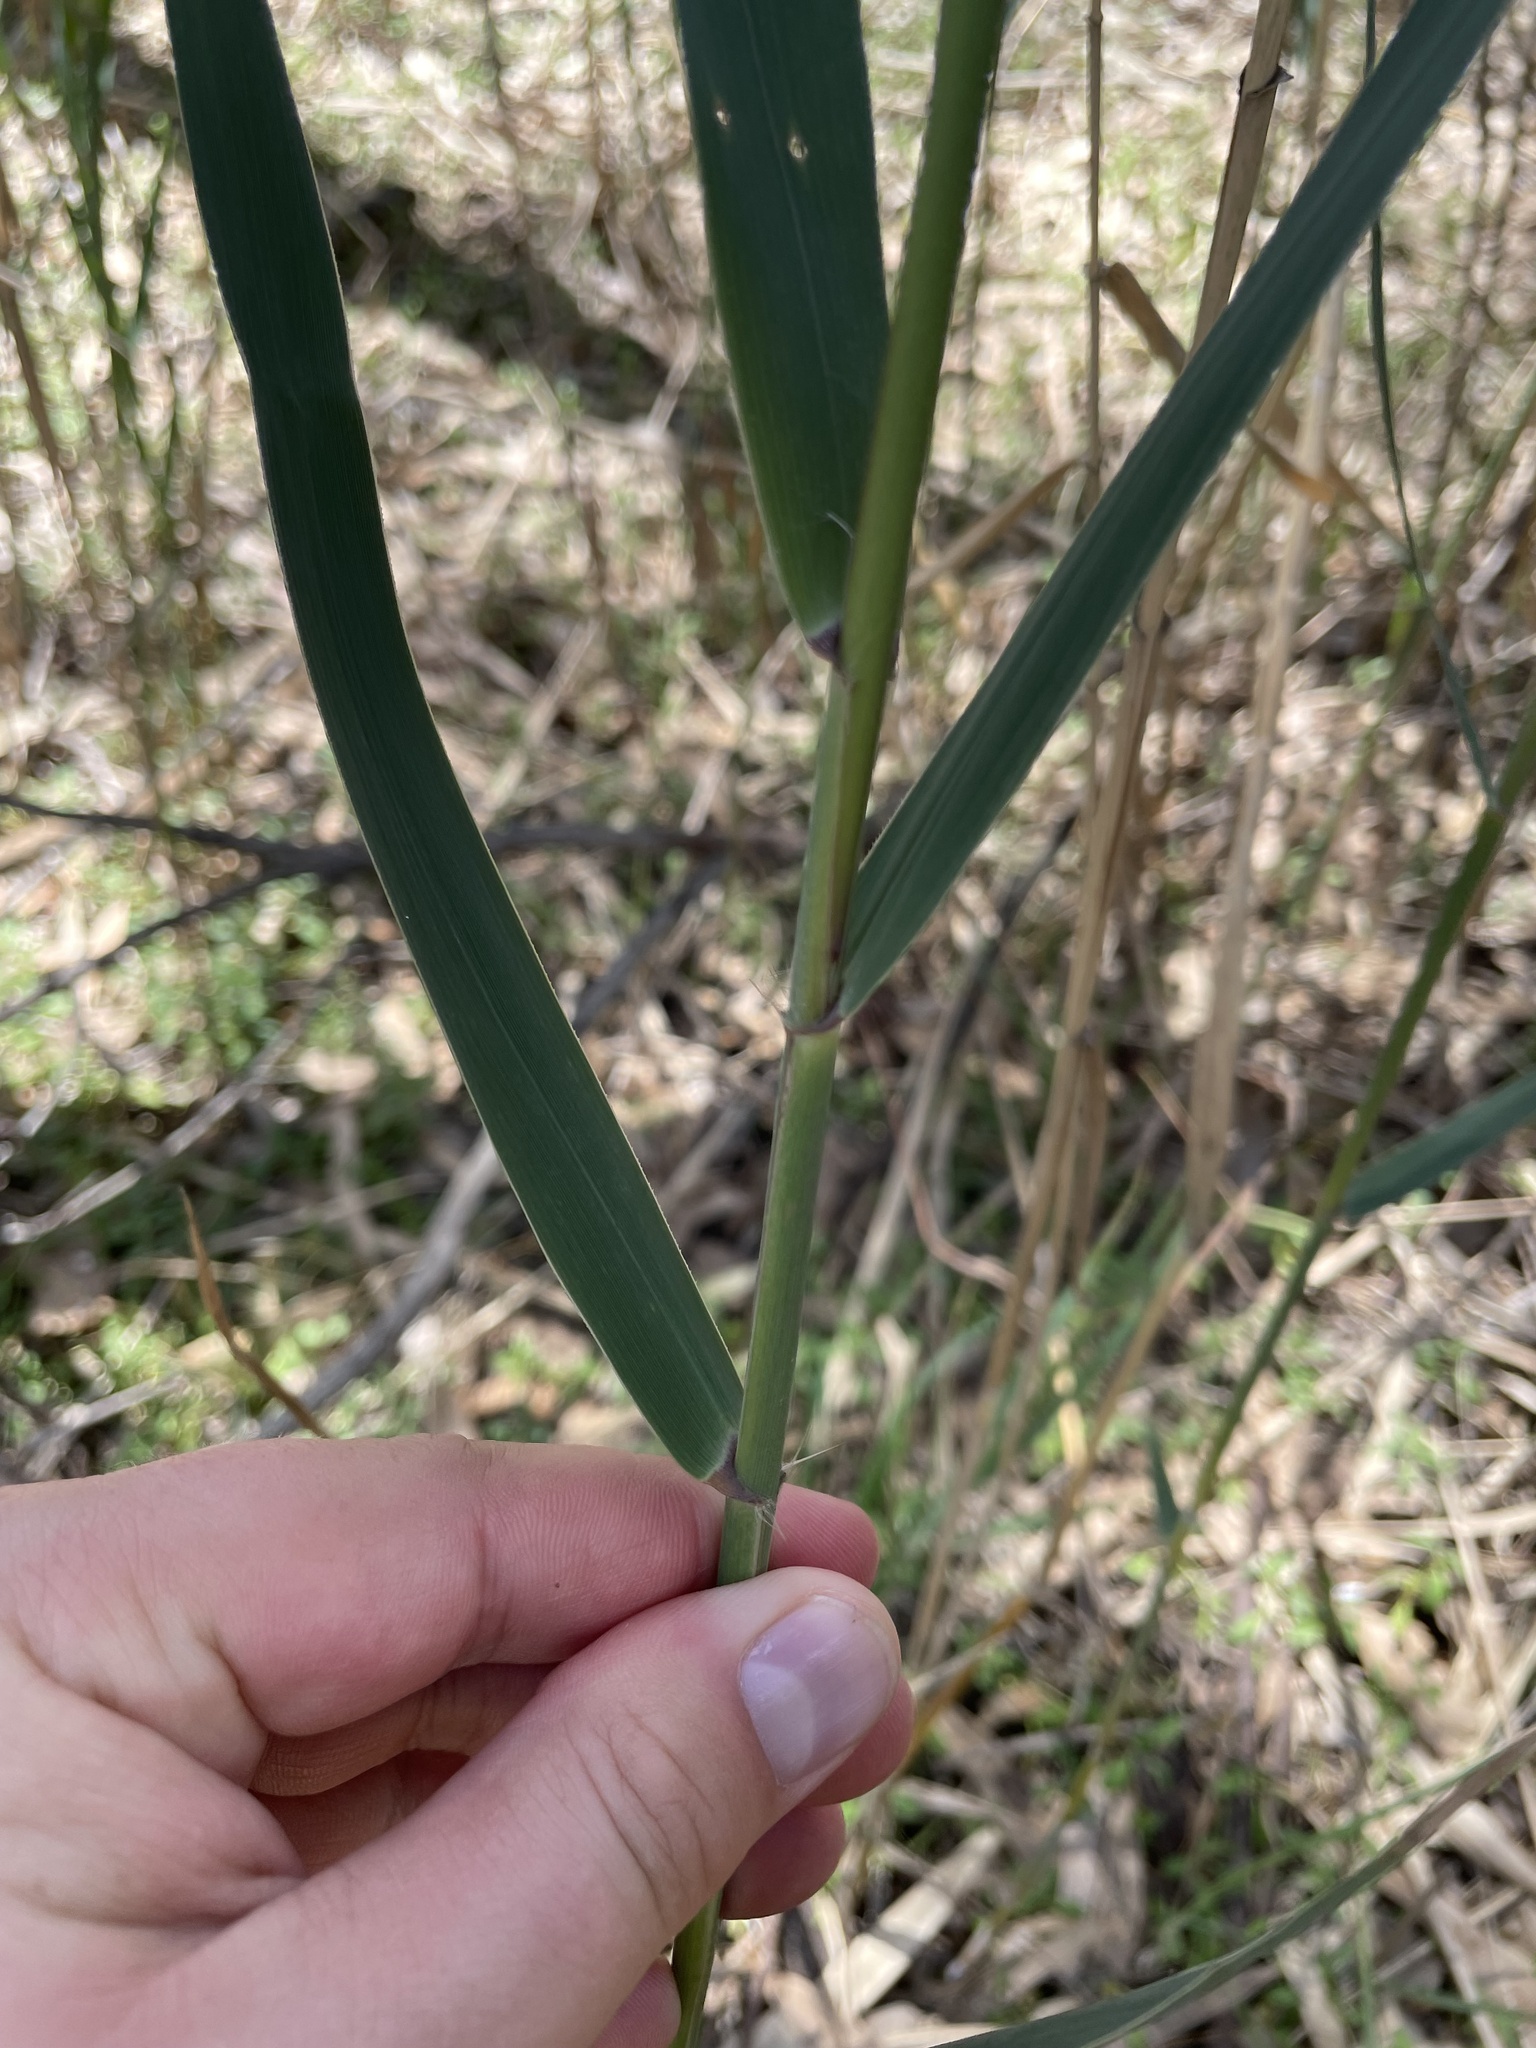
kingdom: Plantae
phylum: Tracheophyta
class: Liliopsida
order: Poales
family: Poaceae
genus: Phragmites
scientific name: Phragmites australis
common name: Common reed
